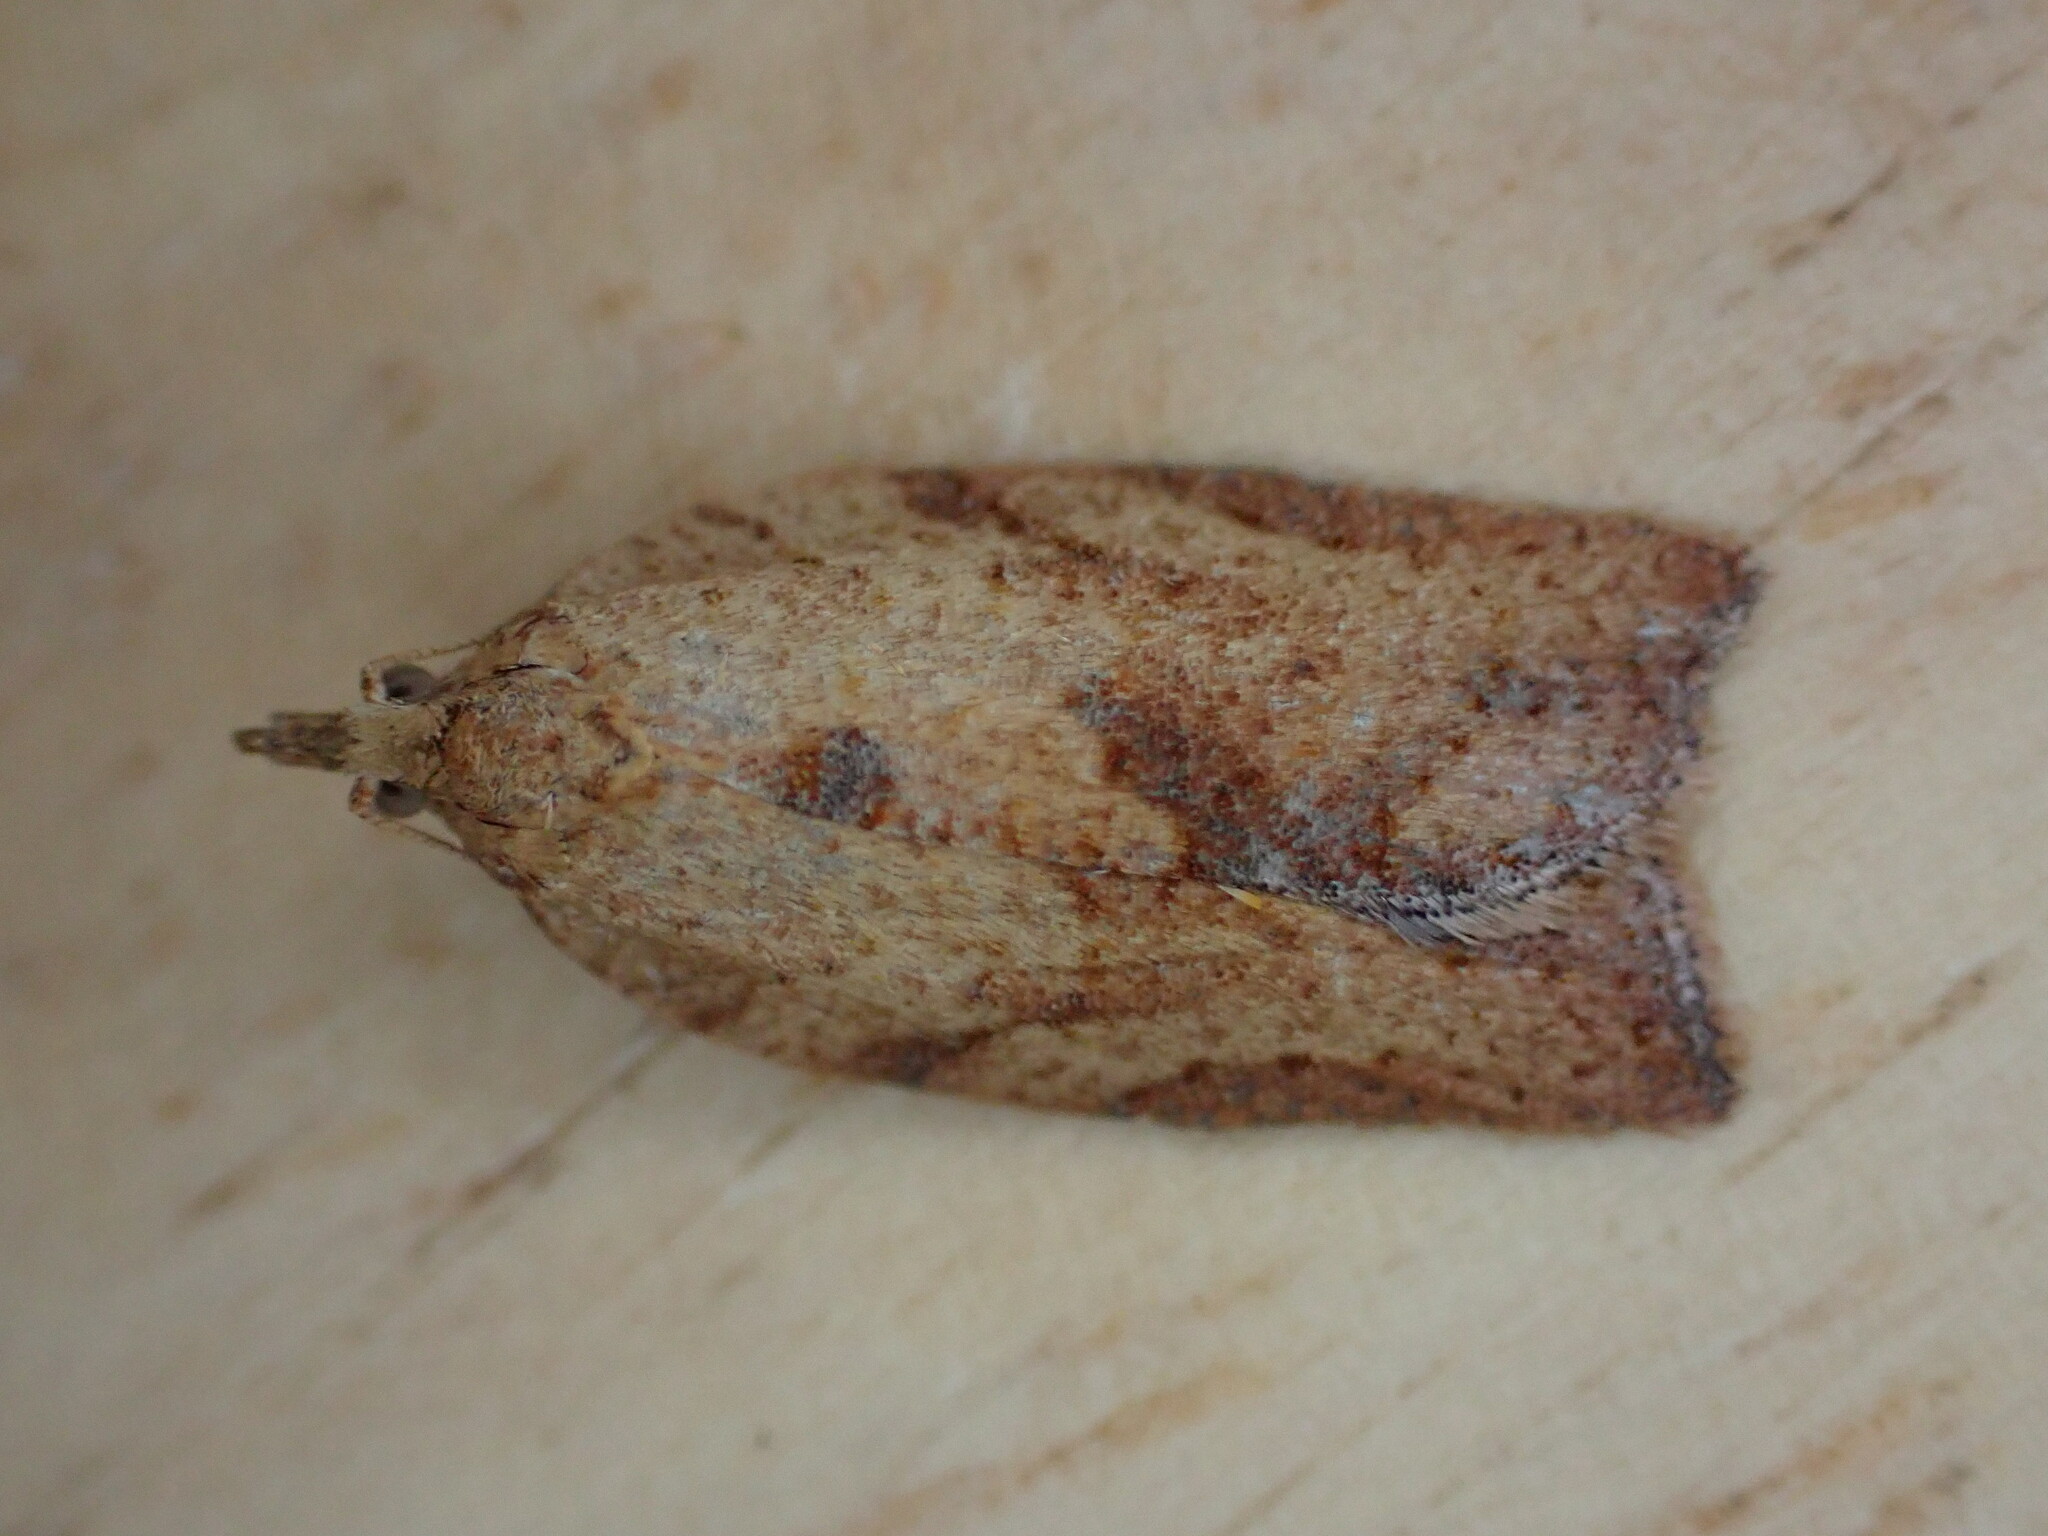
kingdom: Animalia
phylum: Arthropoda
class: Insecta
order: Lepidoptera
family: Tortricidae
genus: Epiphyas
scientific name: Epiphyas postvittana
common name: Light brown apple moth
